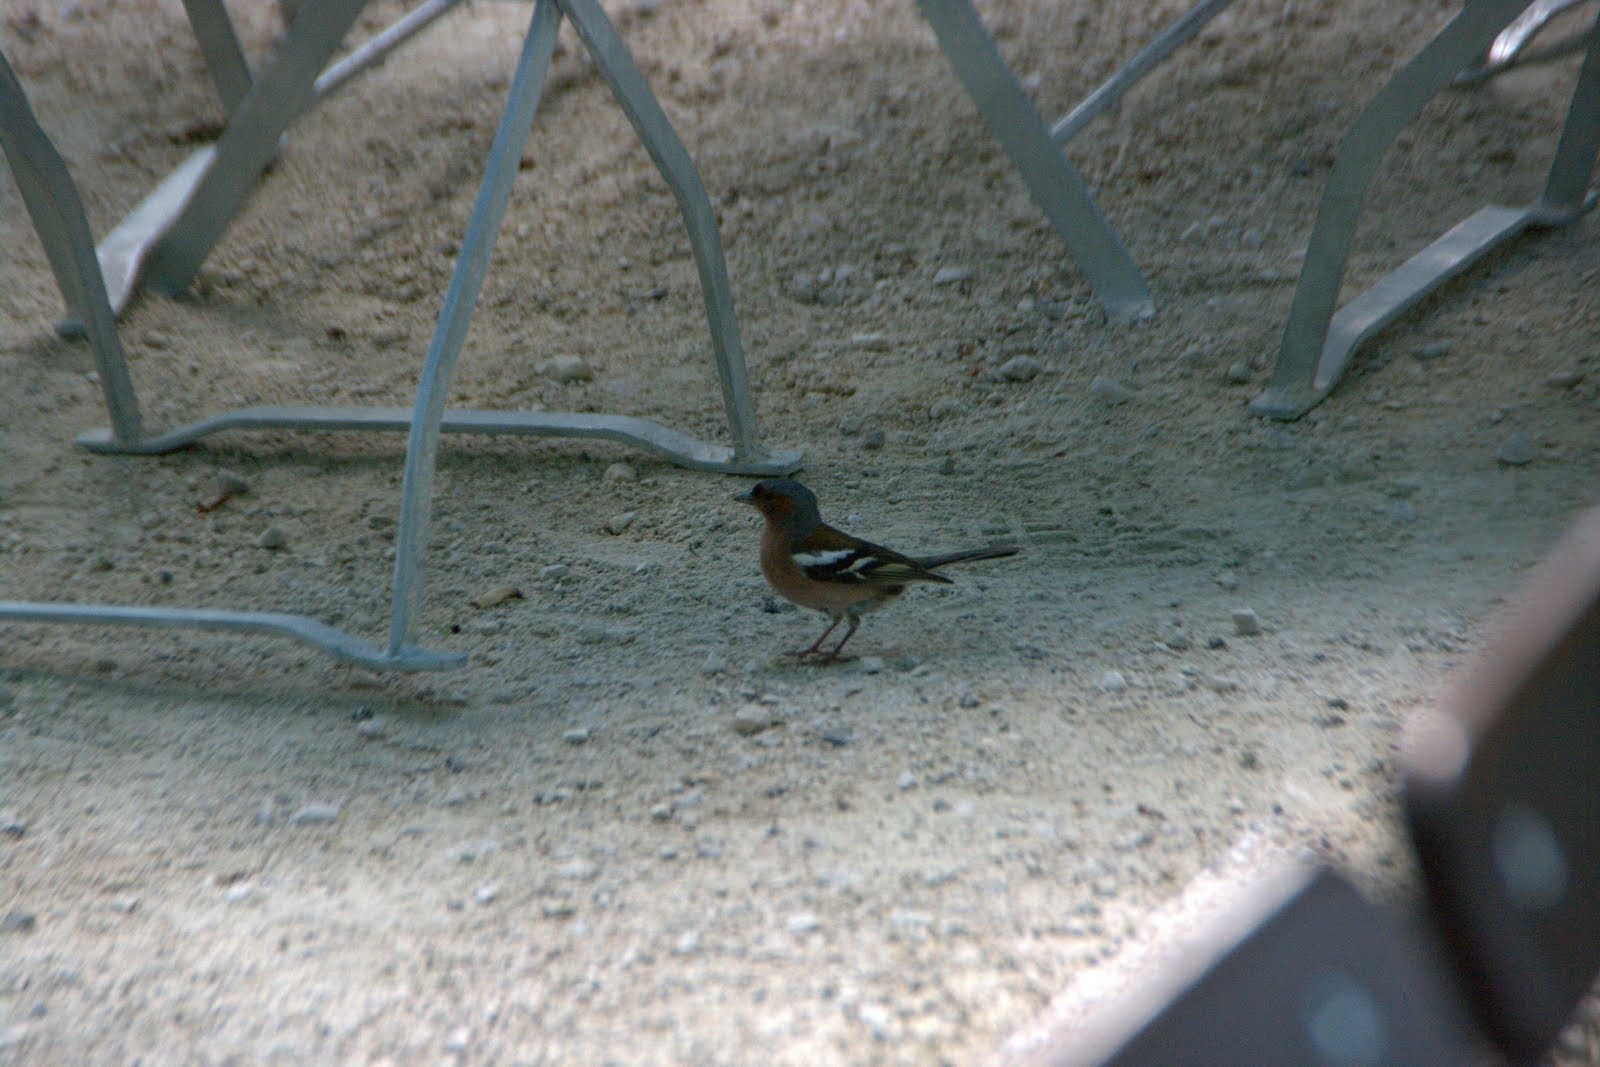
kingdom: Animalia
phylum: Chordata
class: Aves
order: Passeriformes
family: Fringillidae
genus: Fringilla
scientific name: Fringilla coelebs
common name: Common chaffinch
